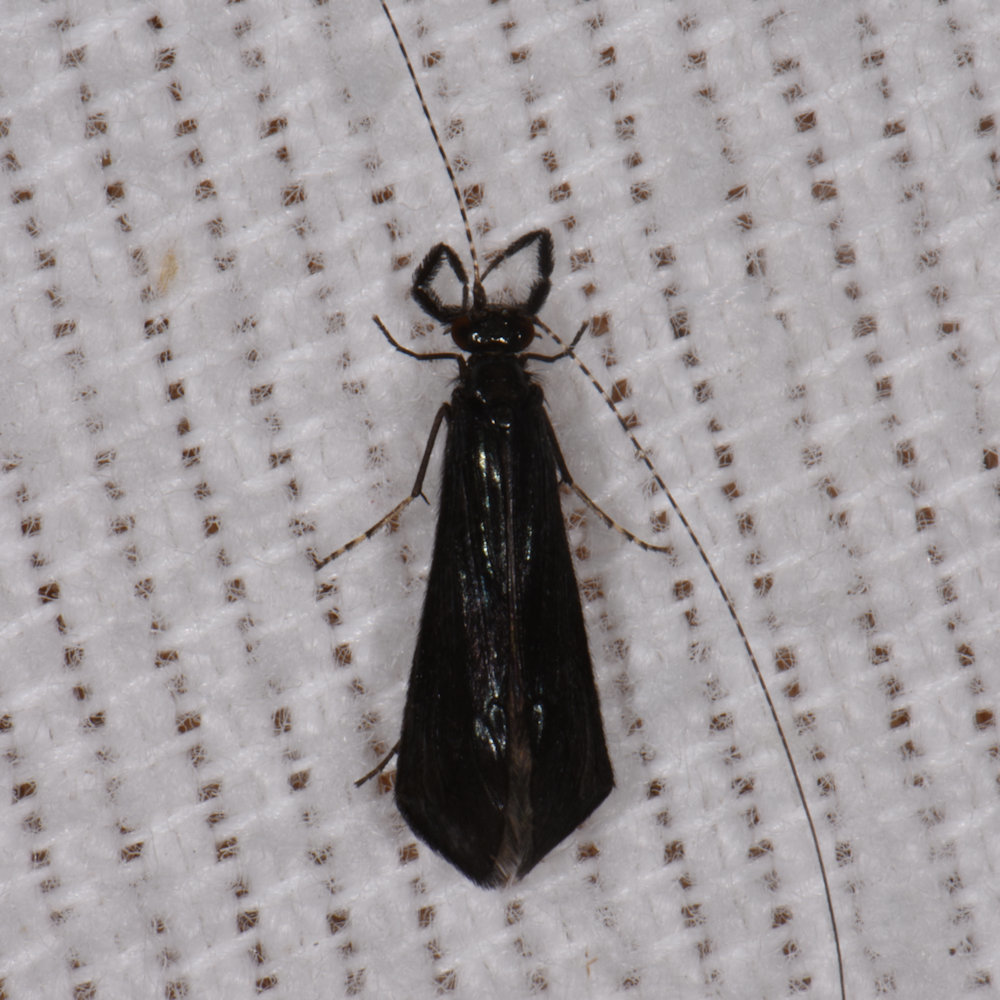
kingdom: Animalia
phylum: Arthropoda
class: Insecta
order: Trichoptera
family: Leptoceridae
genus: Mystacides
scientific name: Mystacides sepulchralis
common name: Black dancer caddisfly
